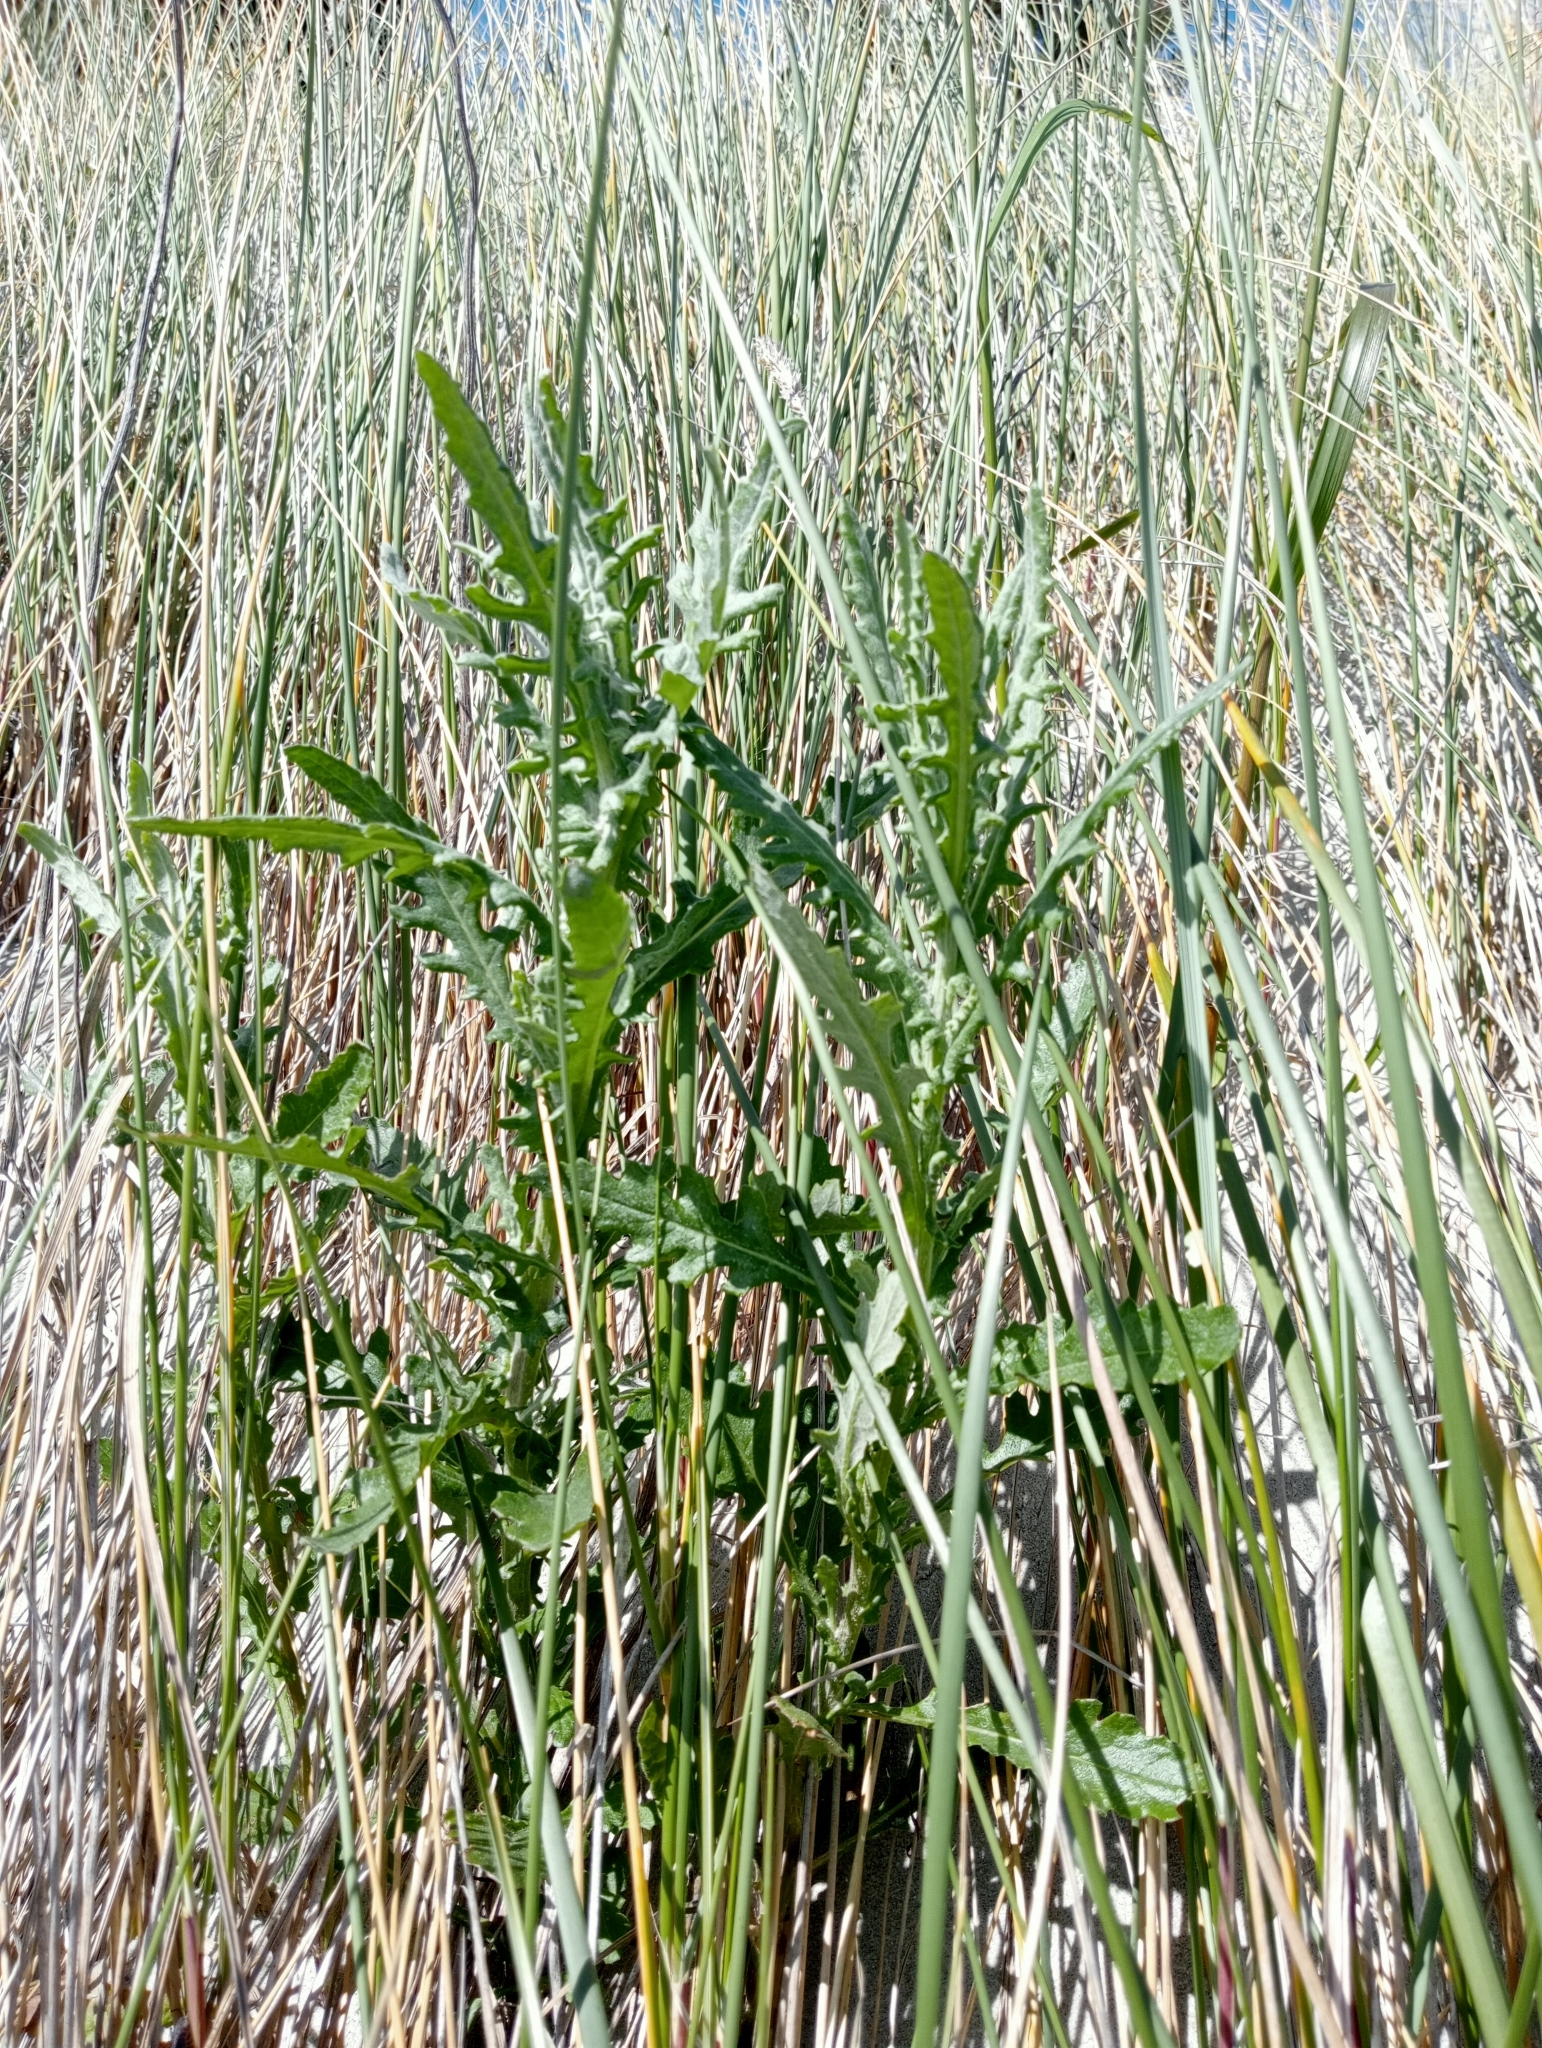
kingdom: Plantae
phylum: Tracheophyta
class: Magnoliopsida
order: Asterales
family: Asteraceae
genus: Senecio
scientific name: Senecio glomeratus
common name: Cutleaf burnweed
